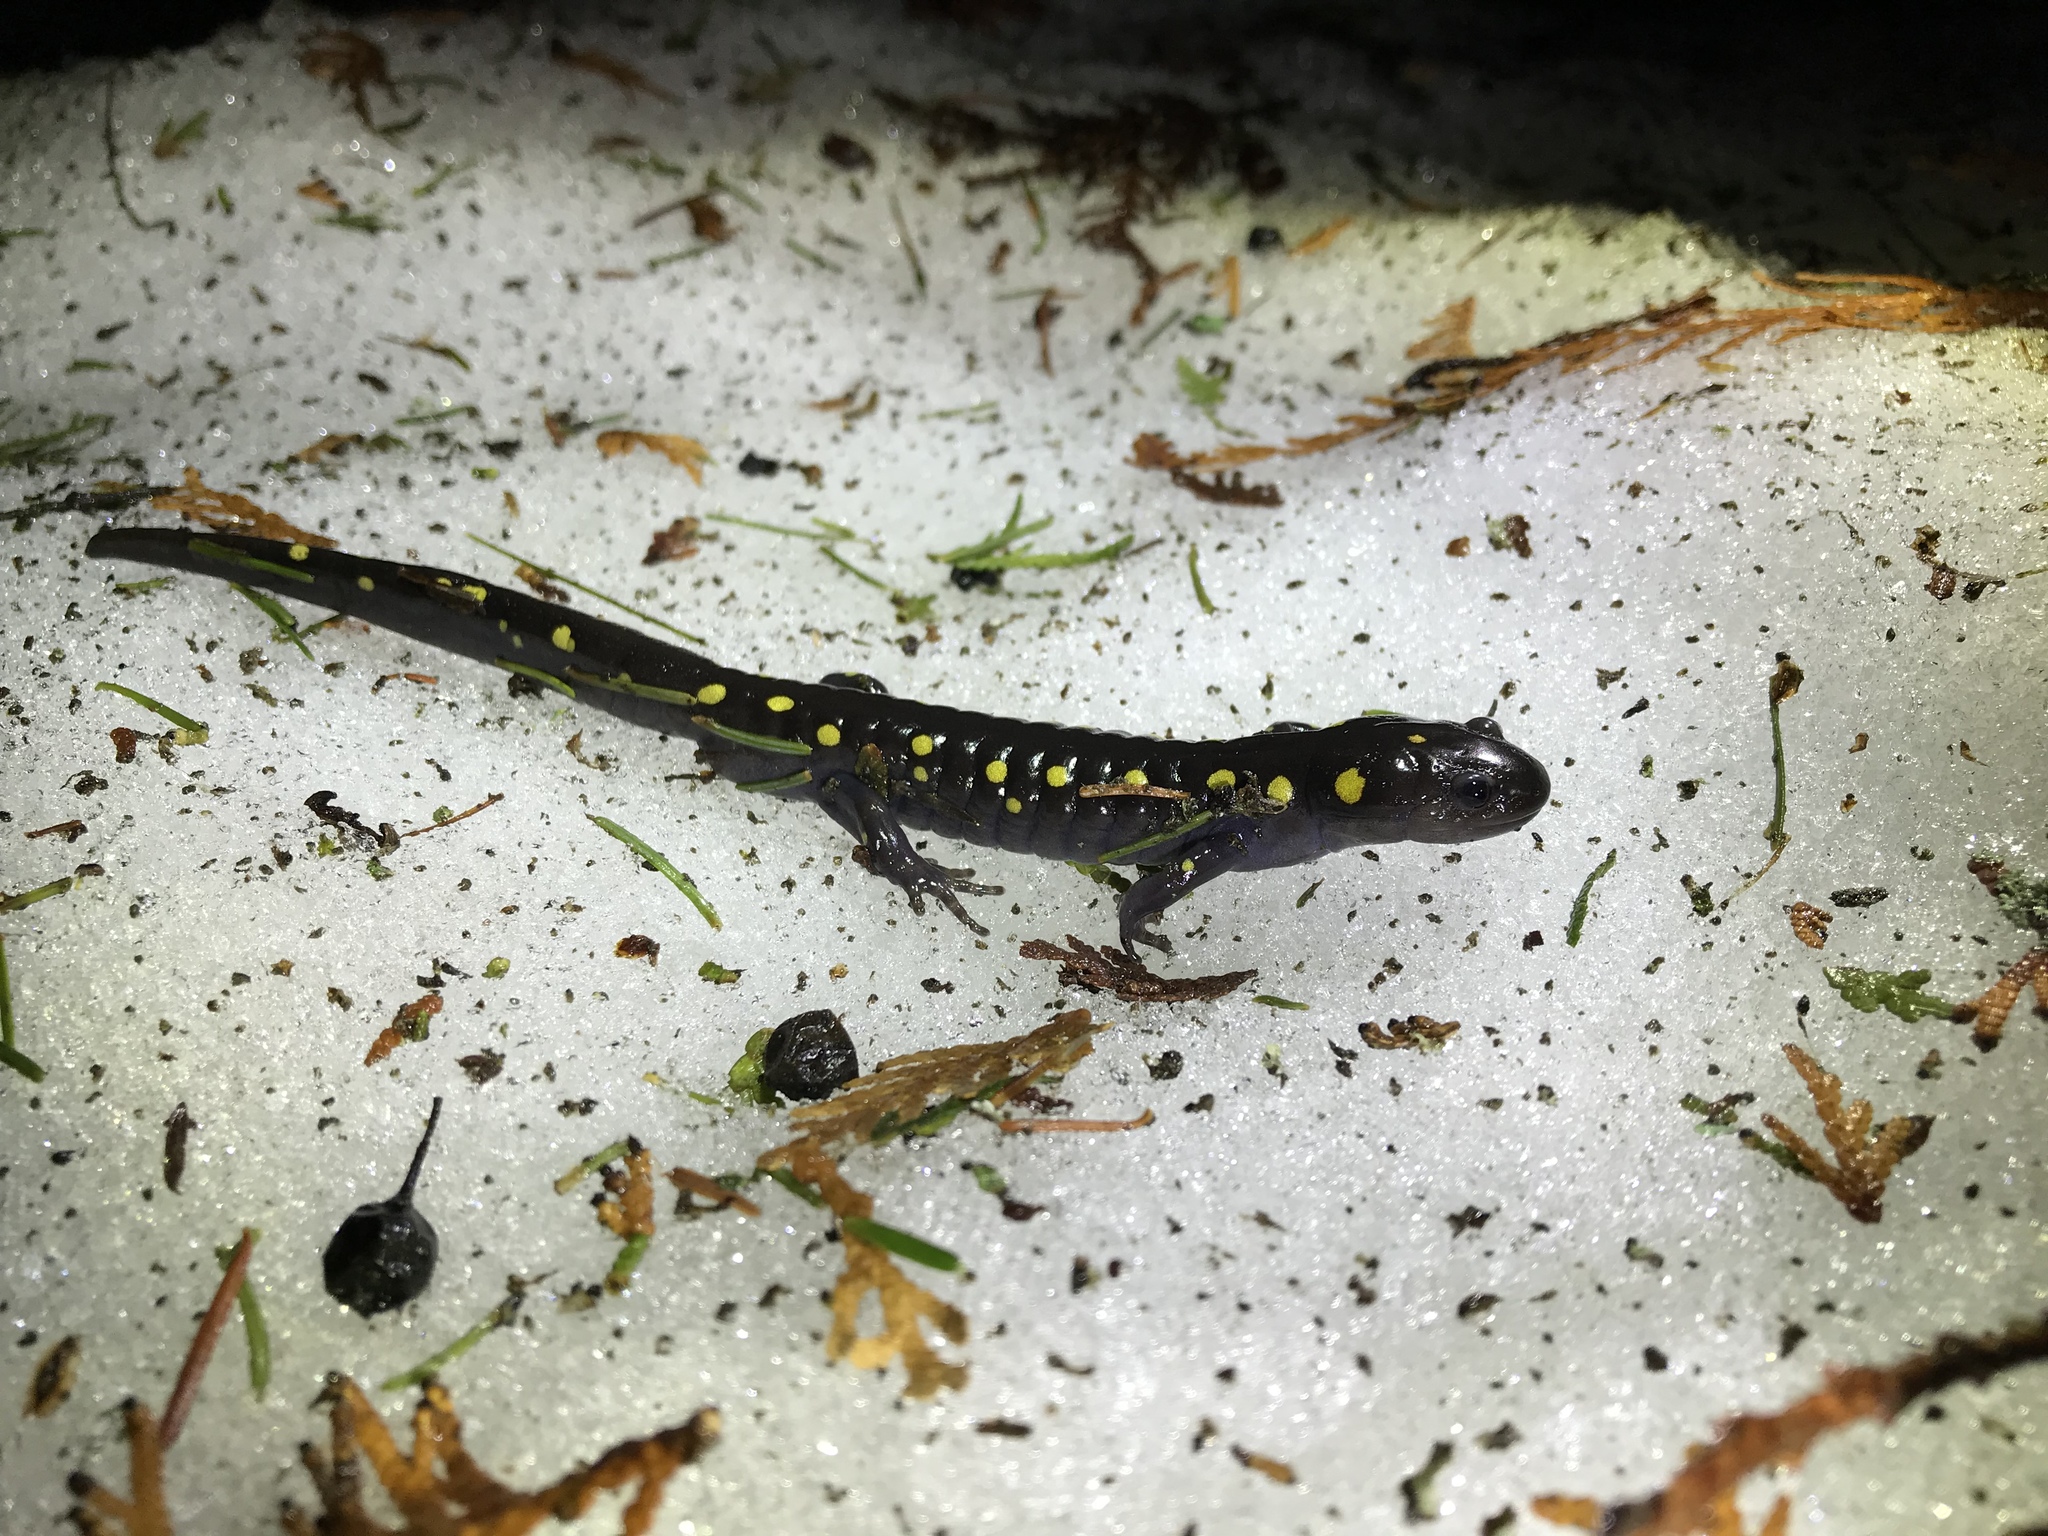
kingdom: Animalia
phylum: Chordata
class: Amphibia
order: Caudata
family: Ambystomatidae
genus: Ambystoma
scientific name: Ambystoma maculatum
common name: Spotted salamander
